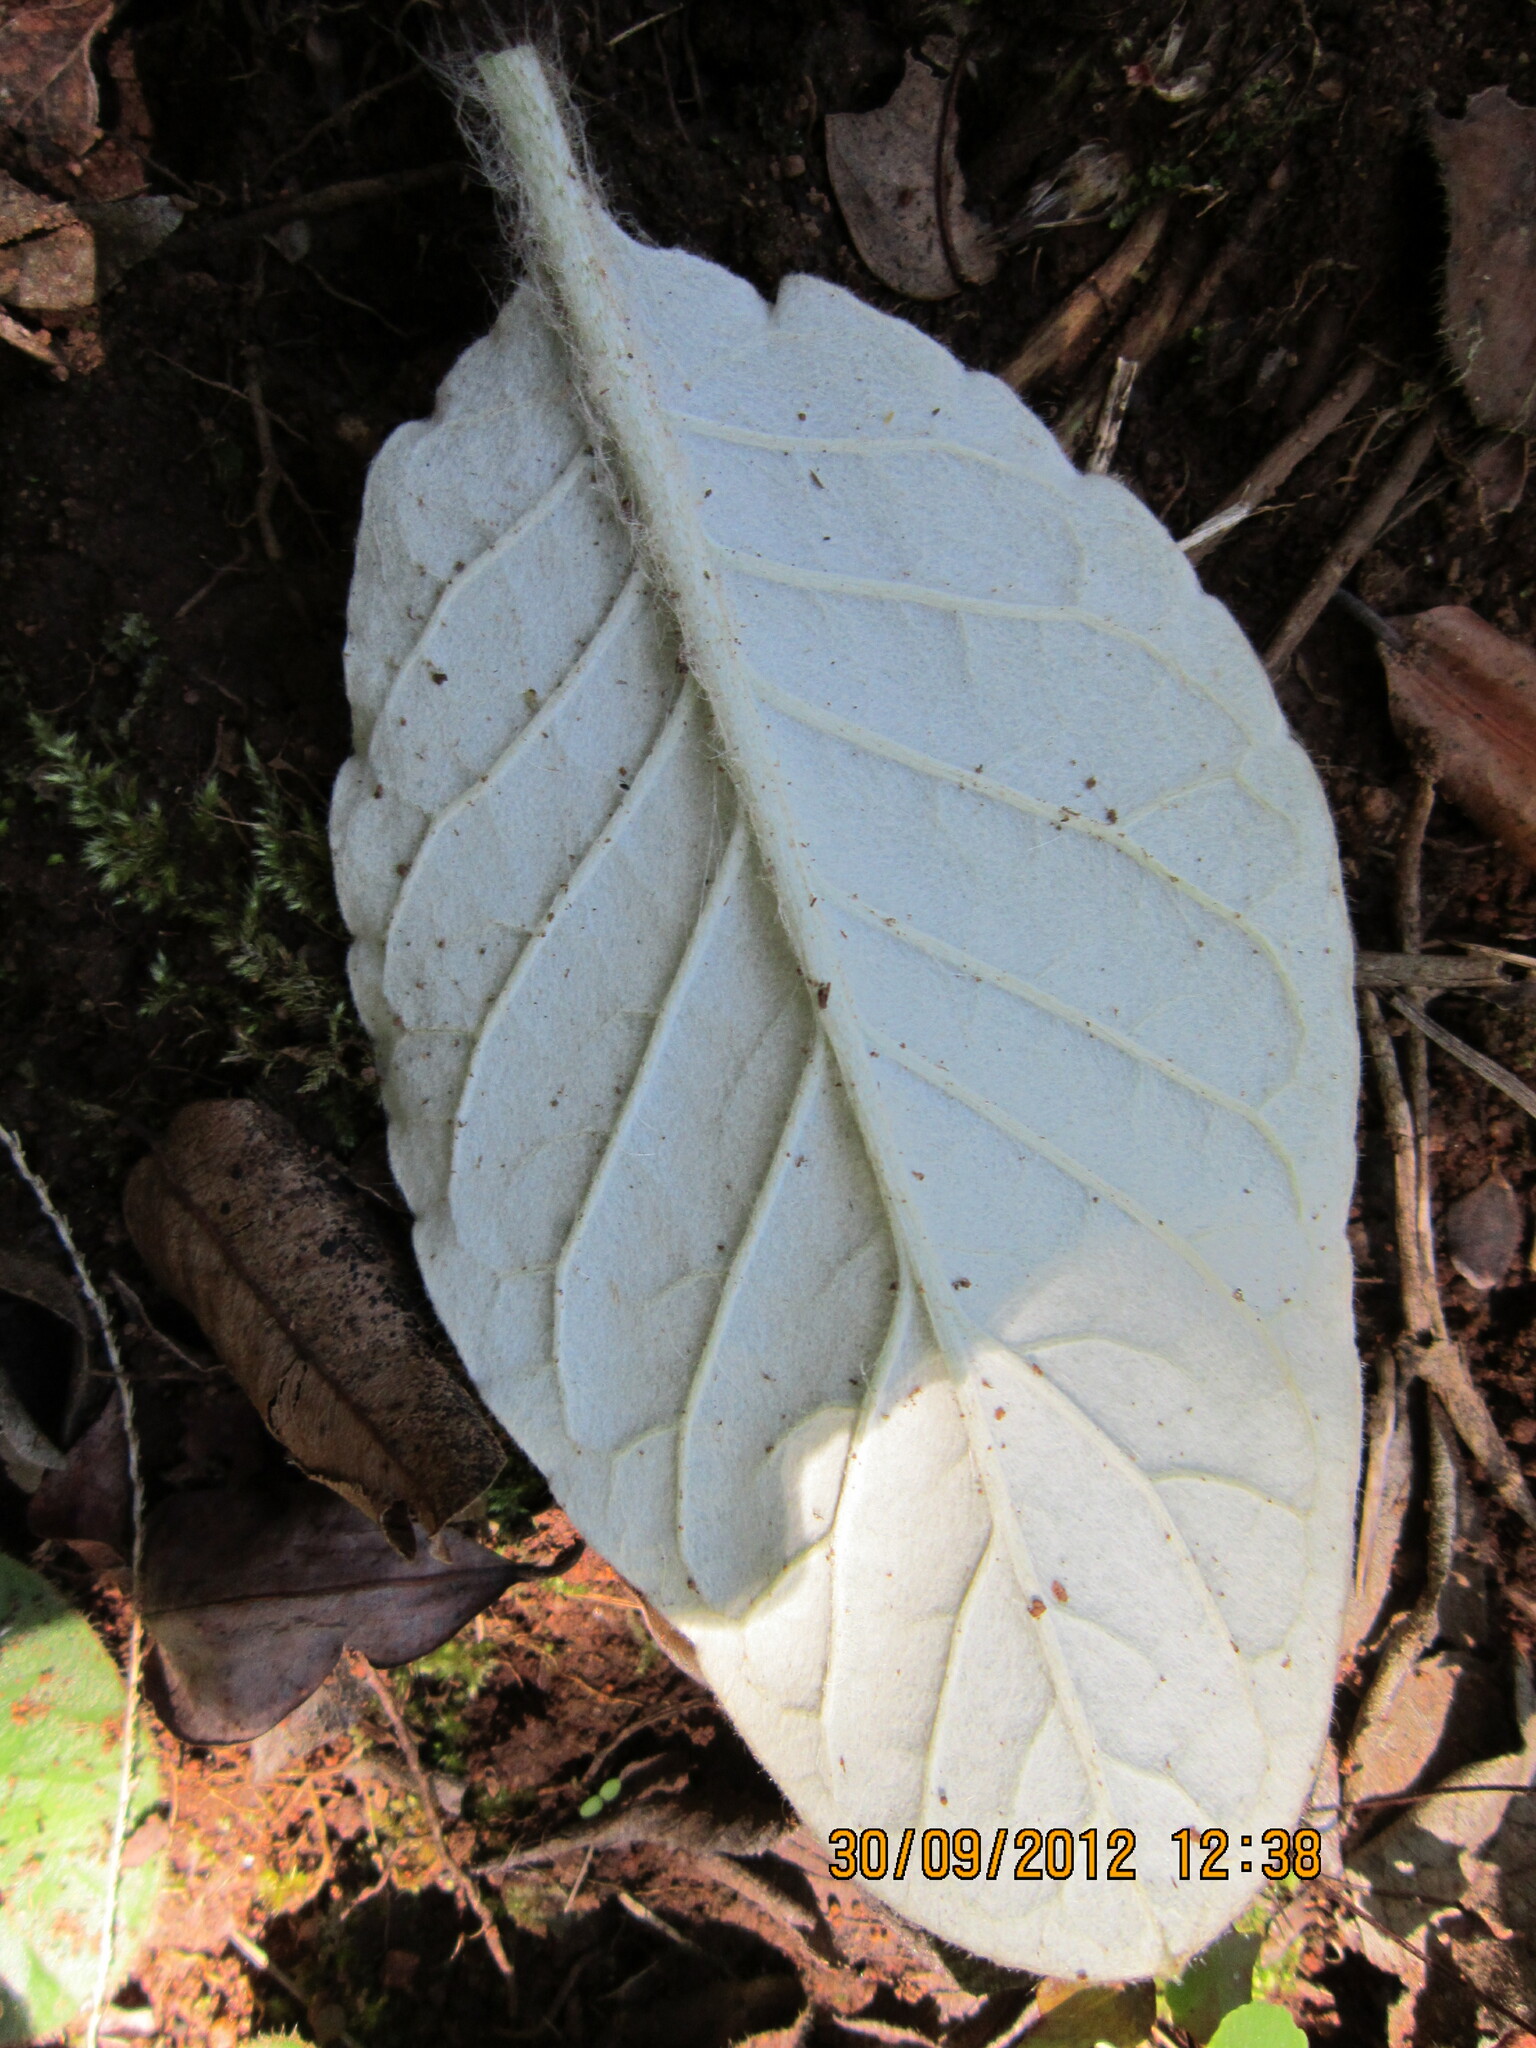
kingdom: Plantae
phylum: Tracheophyta
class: Magnoliopsida
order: Asterales
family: Asteraceae
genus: Gerbera
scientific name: Gerbera ambigua
